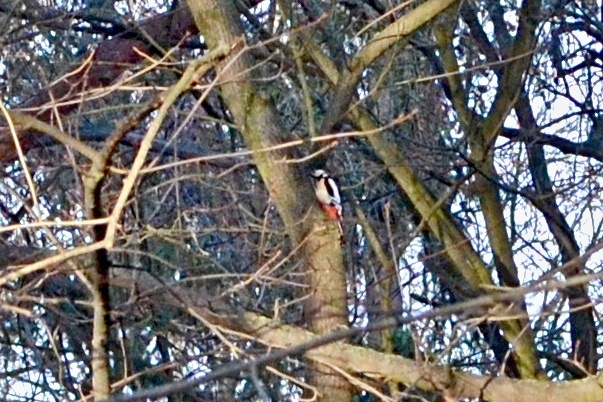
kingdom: Animalia
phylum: Chordata
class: Aves
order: Piciformes
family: Picidae
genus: Dendrocopos
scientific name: Dendrocopos major
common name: Great spotted woodpecker
